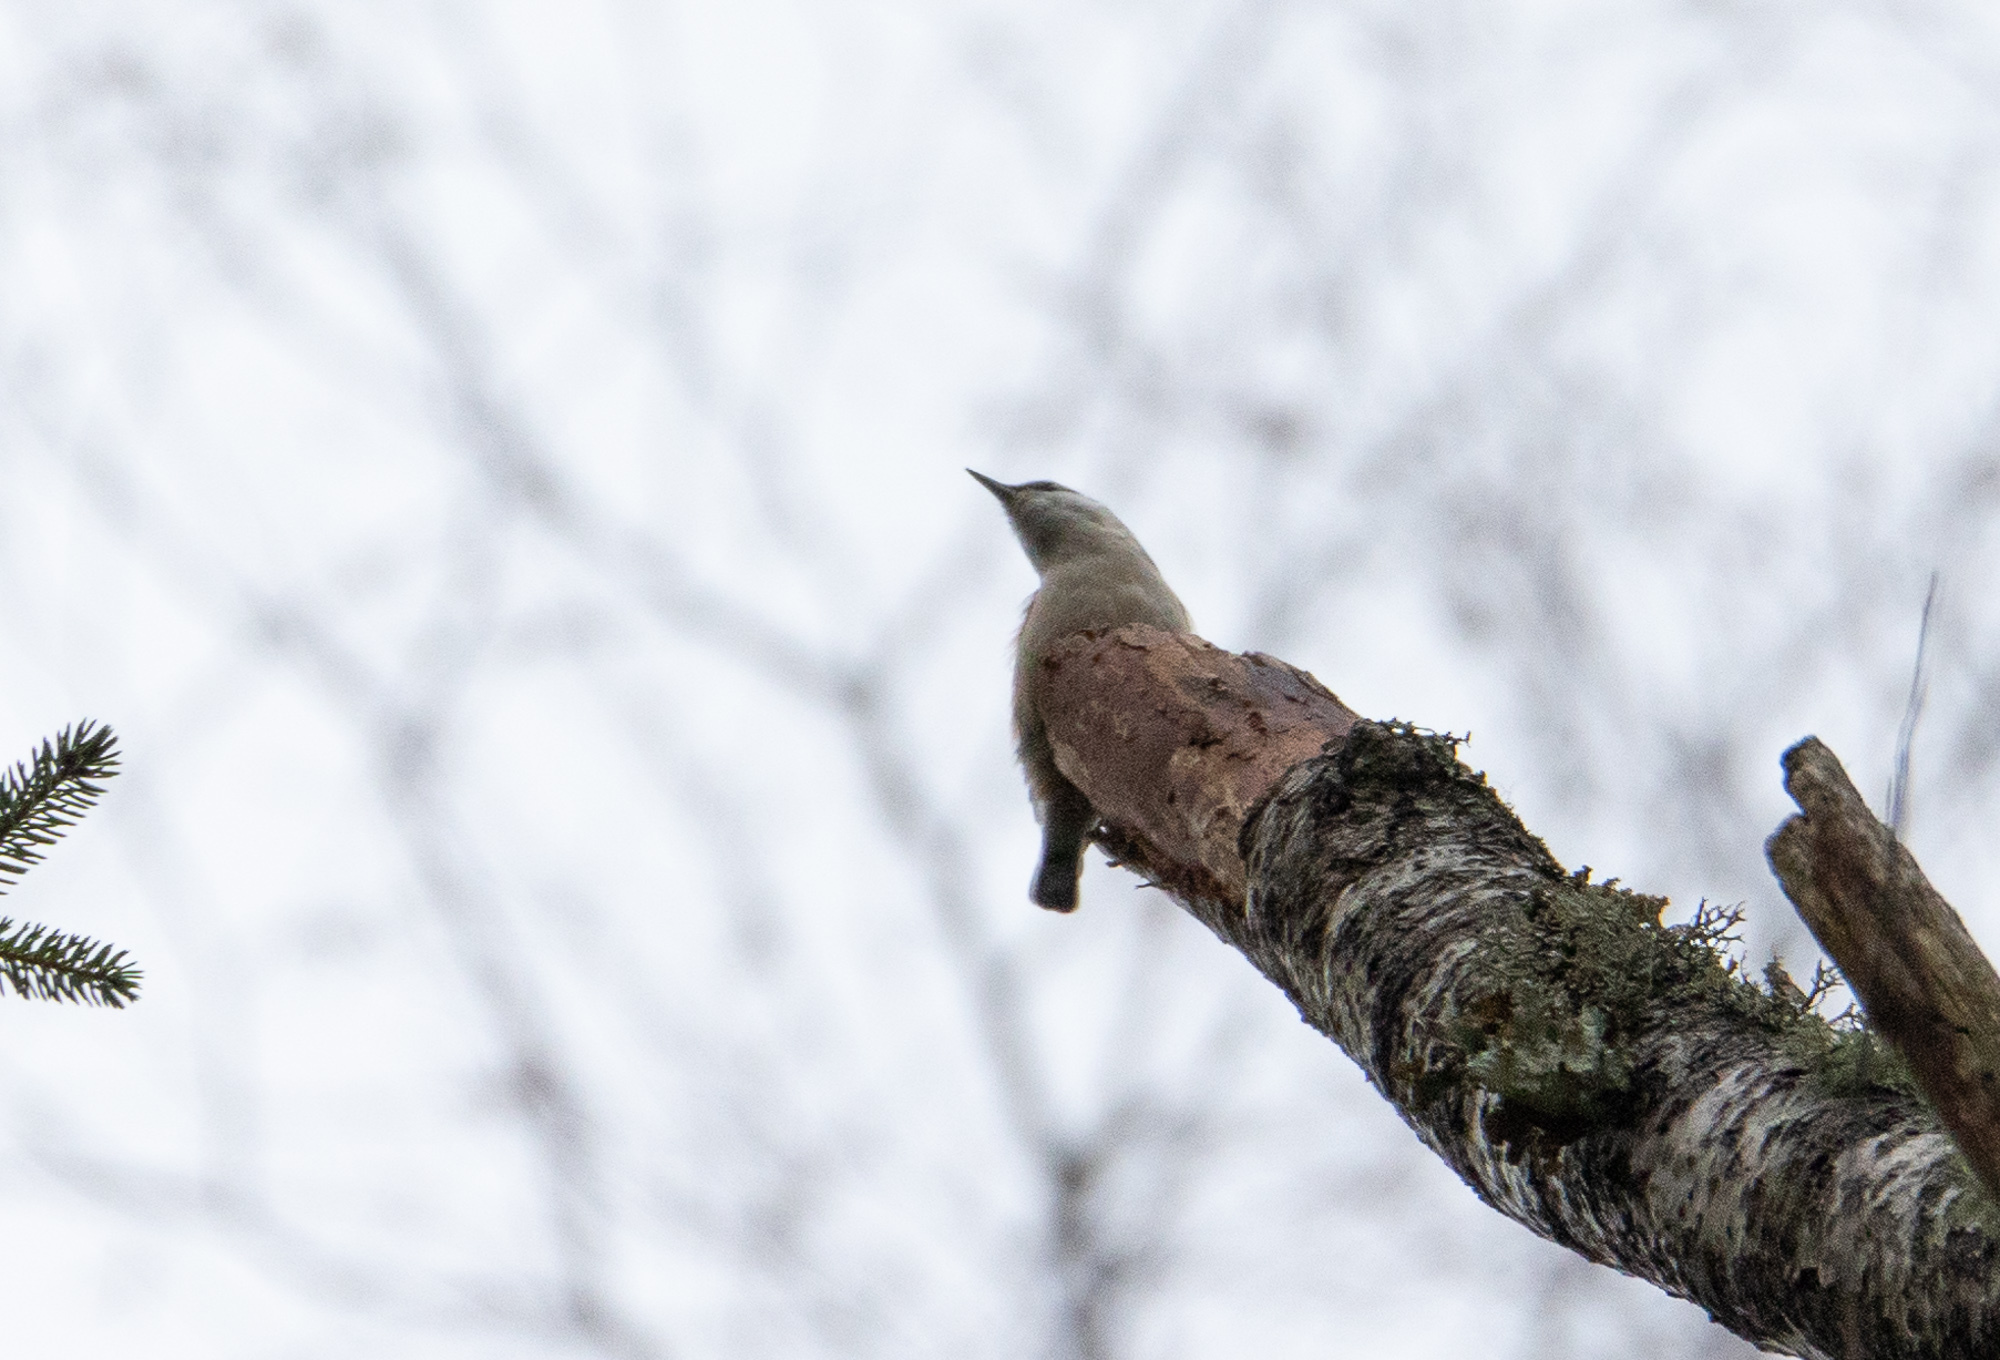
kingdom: Animalia
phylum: Chordata
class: Aves
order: Passeriformes
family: Sittidae
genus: Sitta
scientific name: Sitta europaea
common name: Eurasian nuthatch
